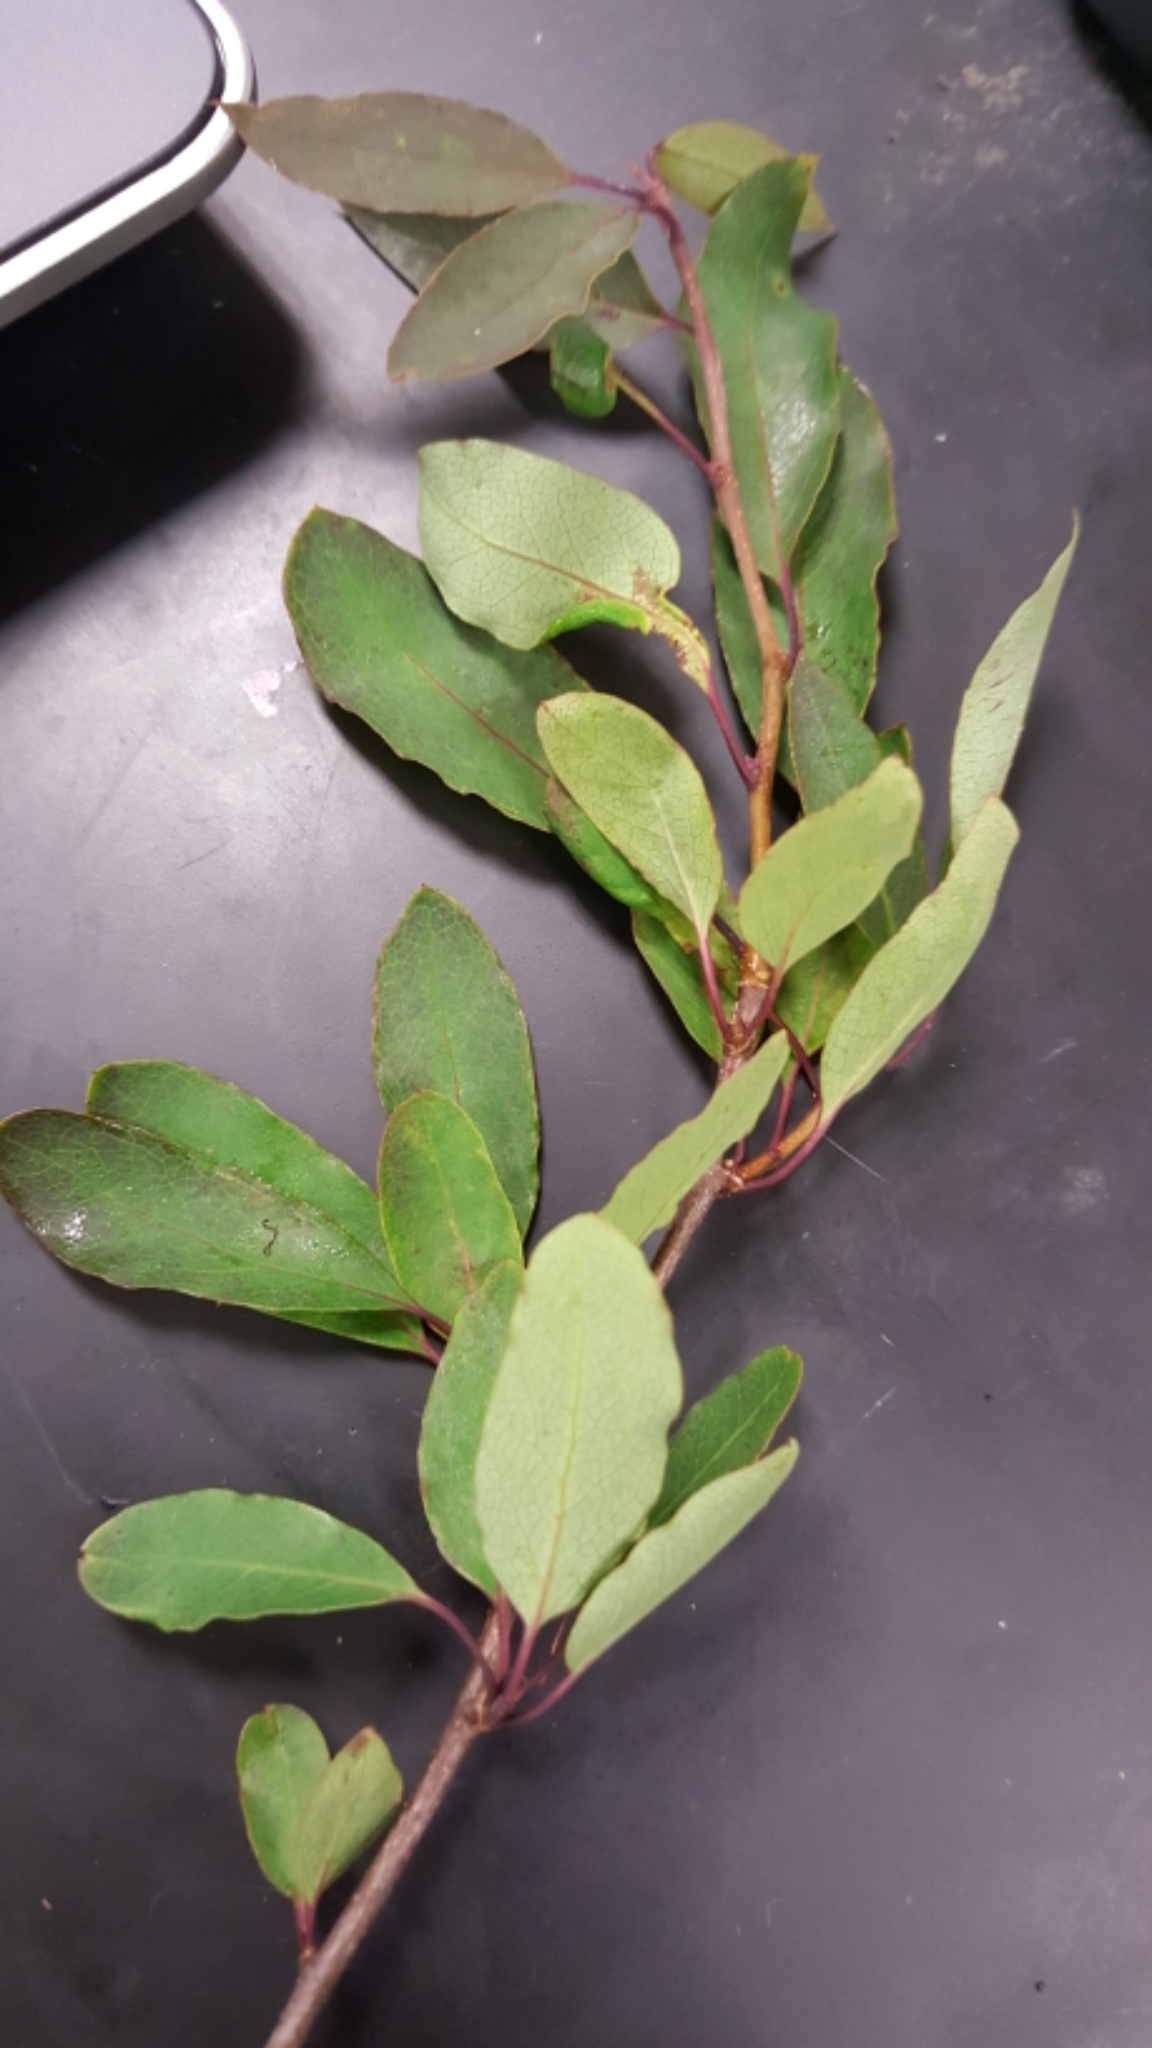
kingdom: Plantae
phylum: Tracheophyta
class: Magnoliopsida
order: Aquifoliales
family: Aquifoliaceae
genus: Ilex
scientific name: Ilex mucronata
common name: Catberry
